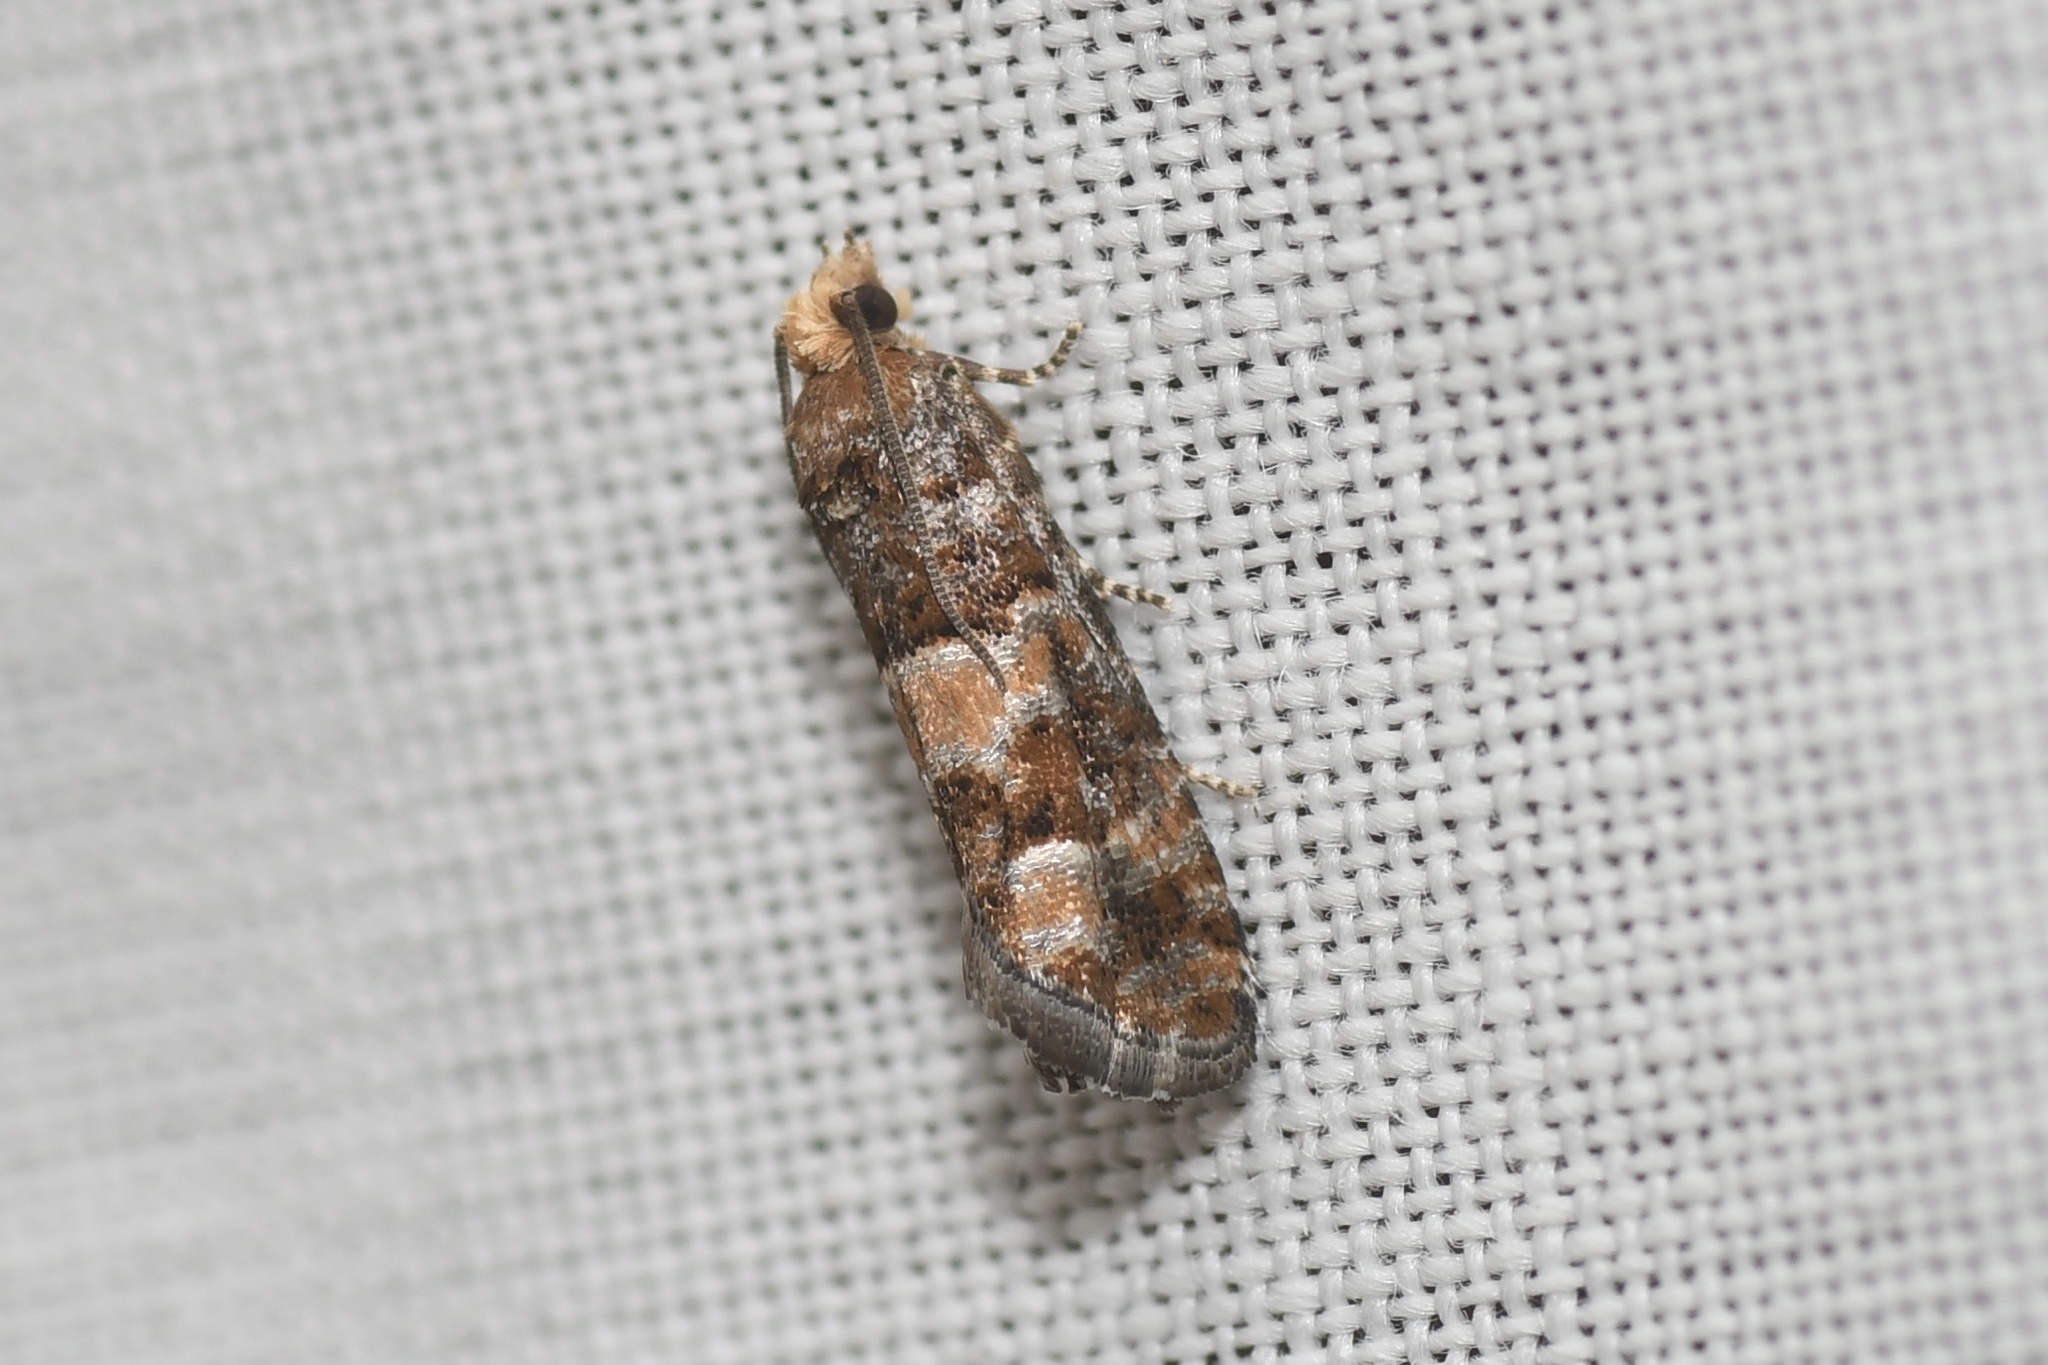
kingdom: Animalia
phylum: Arthropoda
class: Insecta
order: Lepidoptera
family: Tortricidae
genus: Eucopina
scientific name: Eucopina tocullionana
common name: White pinecone borer moth
